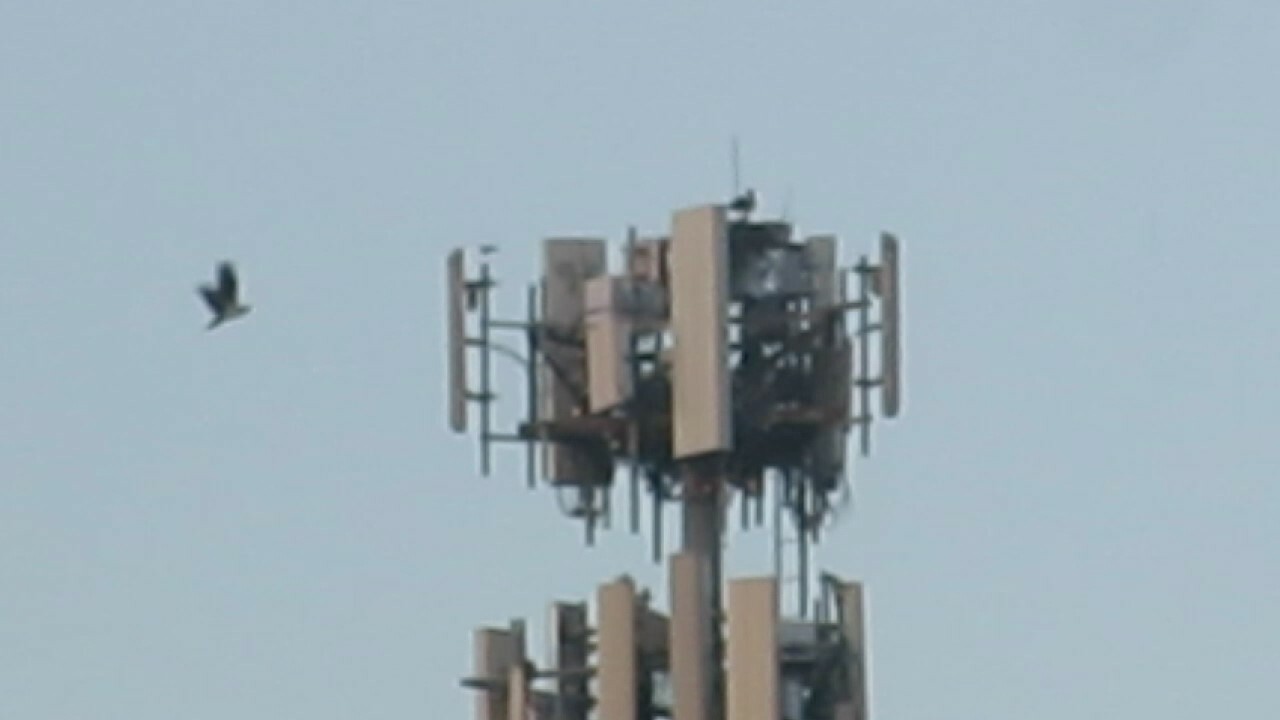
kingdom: Animalia
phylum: Chordata
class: Aves
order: Accipitriformes
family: Pandionidae
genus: Pandion
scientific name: Pandion haliaetus
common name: Osprey
